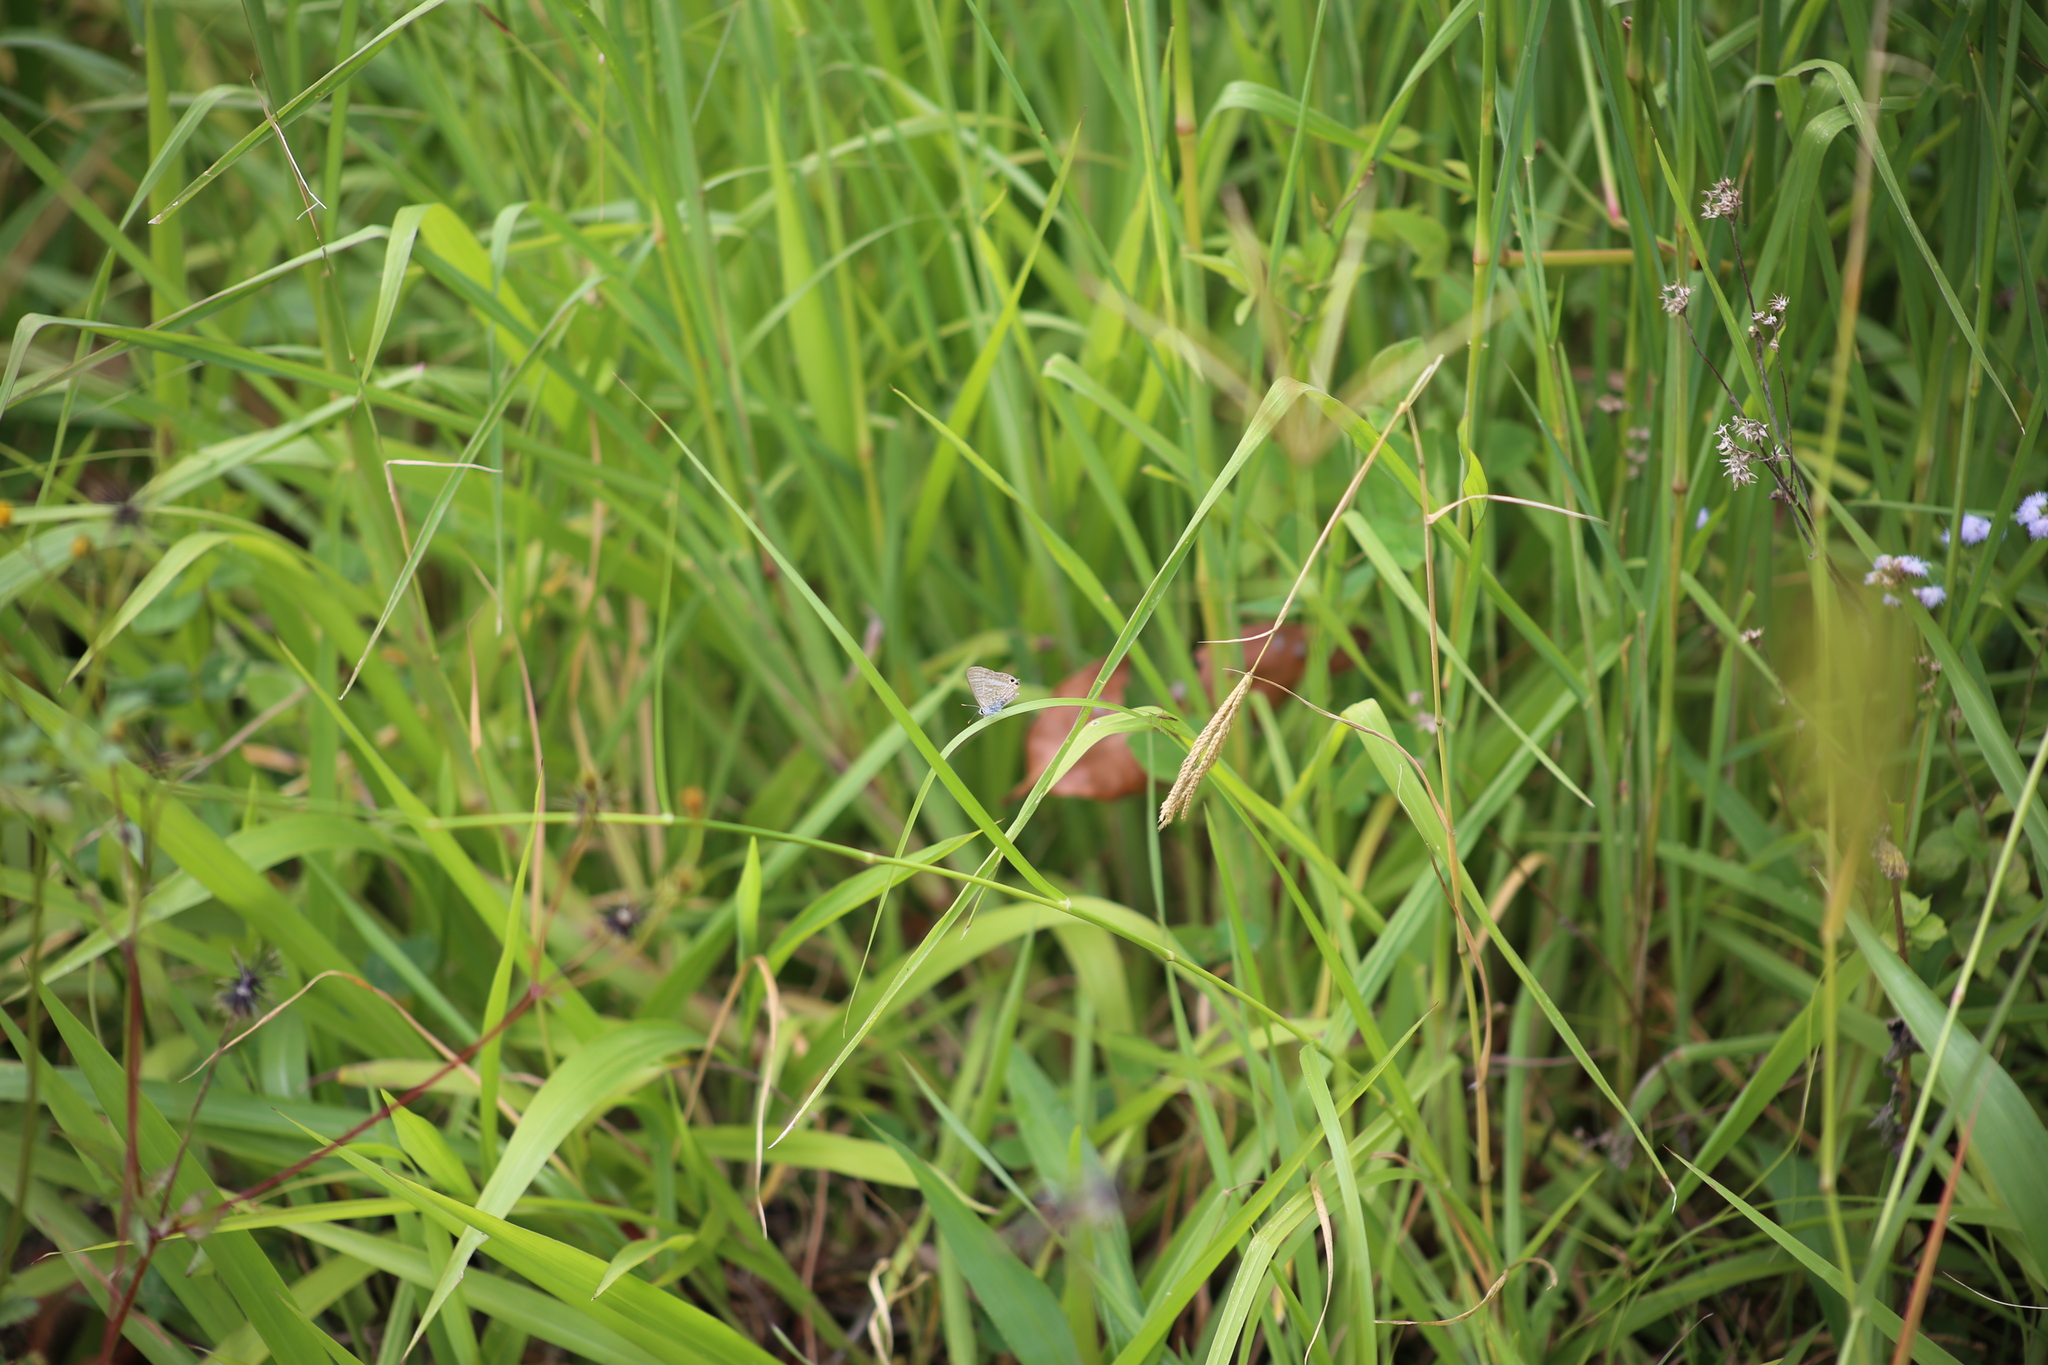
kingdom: Animalia
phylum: Arthropoda
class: Insecta
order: Lepidoptera
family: Lycaenidae
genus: Lampides
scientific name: Lampides boeticus
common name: Long-tailed blue
